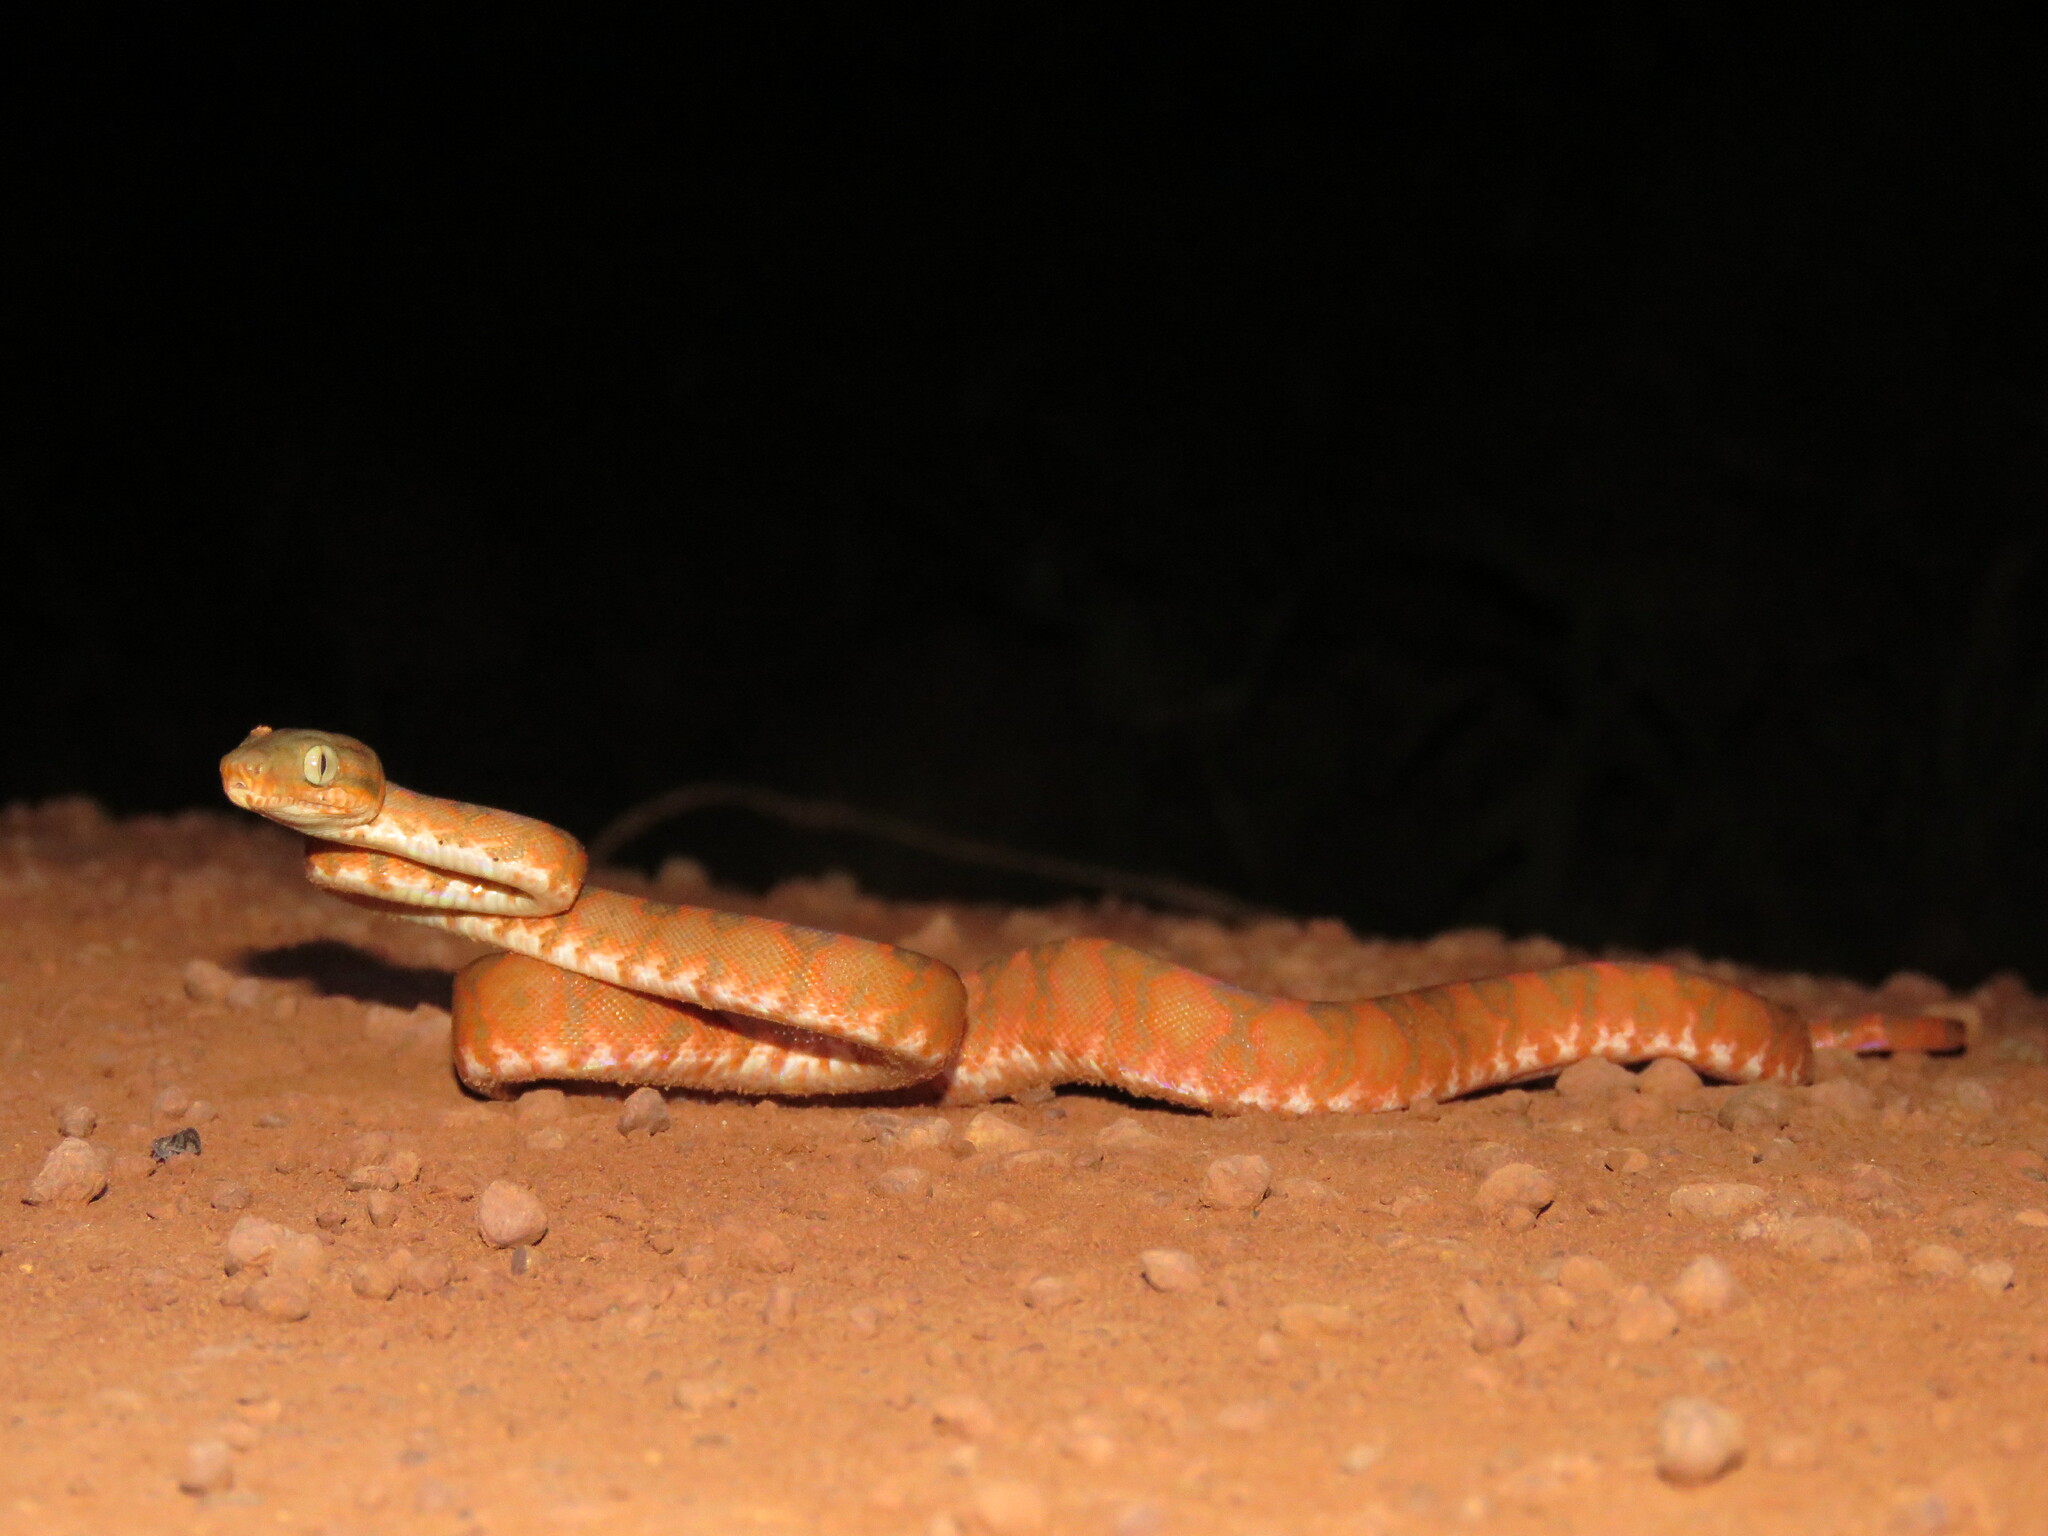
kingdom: Animalia
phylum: Chordata
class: Squamata
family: Boidae
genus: Corallus
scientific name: Corallus hortulana
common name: Garden tree boa
